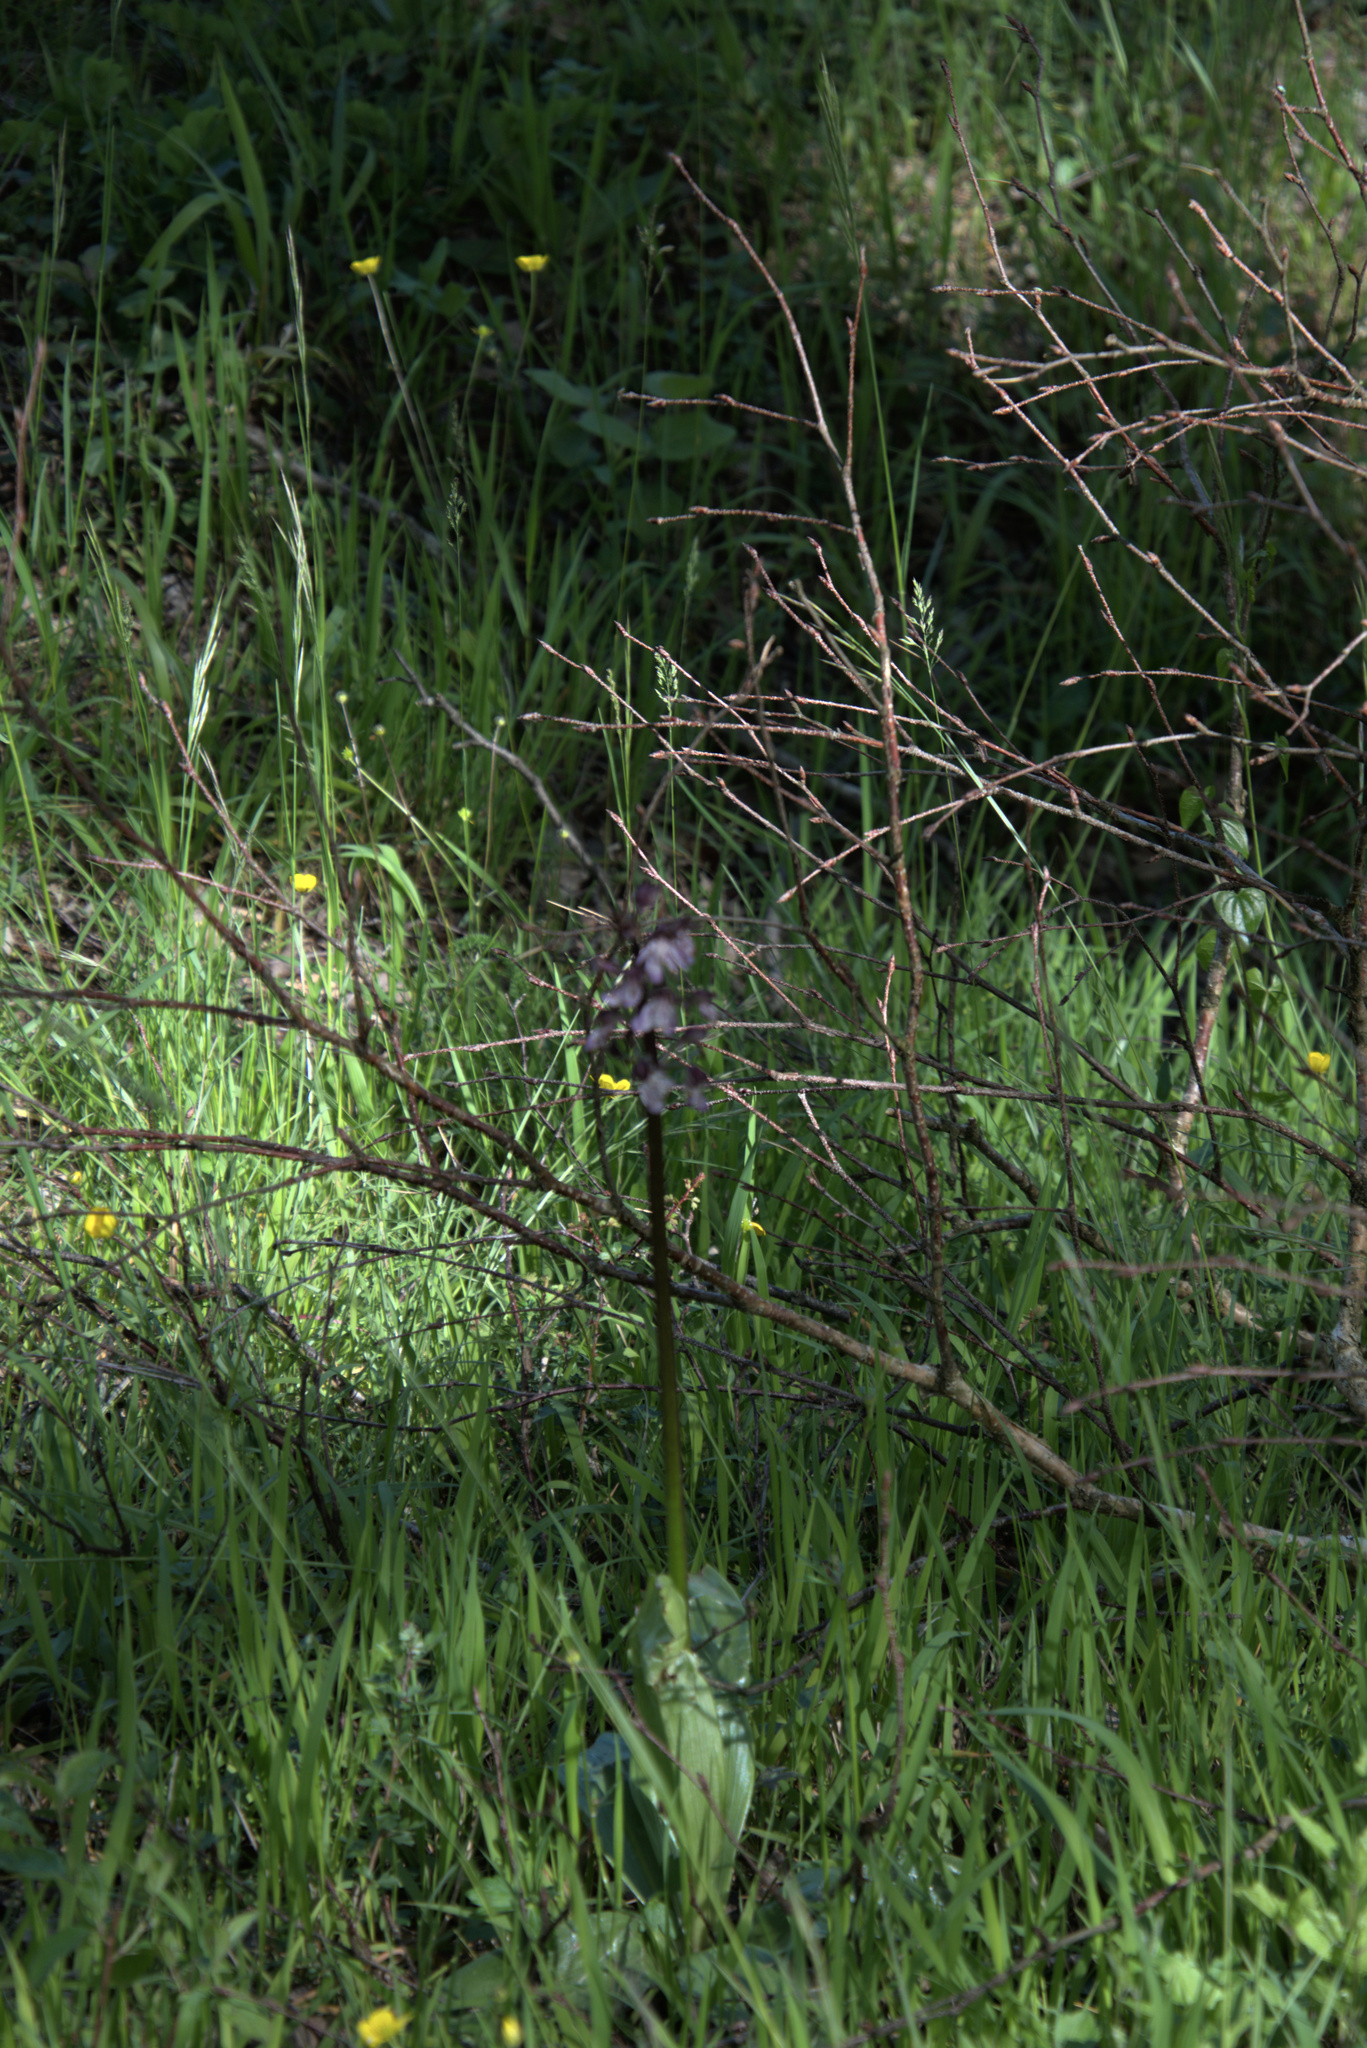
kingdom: Plantae
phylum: Tracheophyta
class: Liliopsida
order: Asparagales
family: Orchidaceae
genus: Orchis
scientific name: Orchis purpurea
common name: Lady orchid
